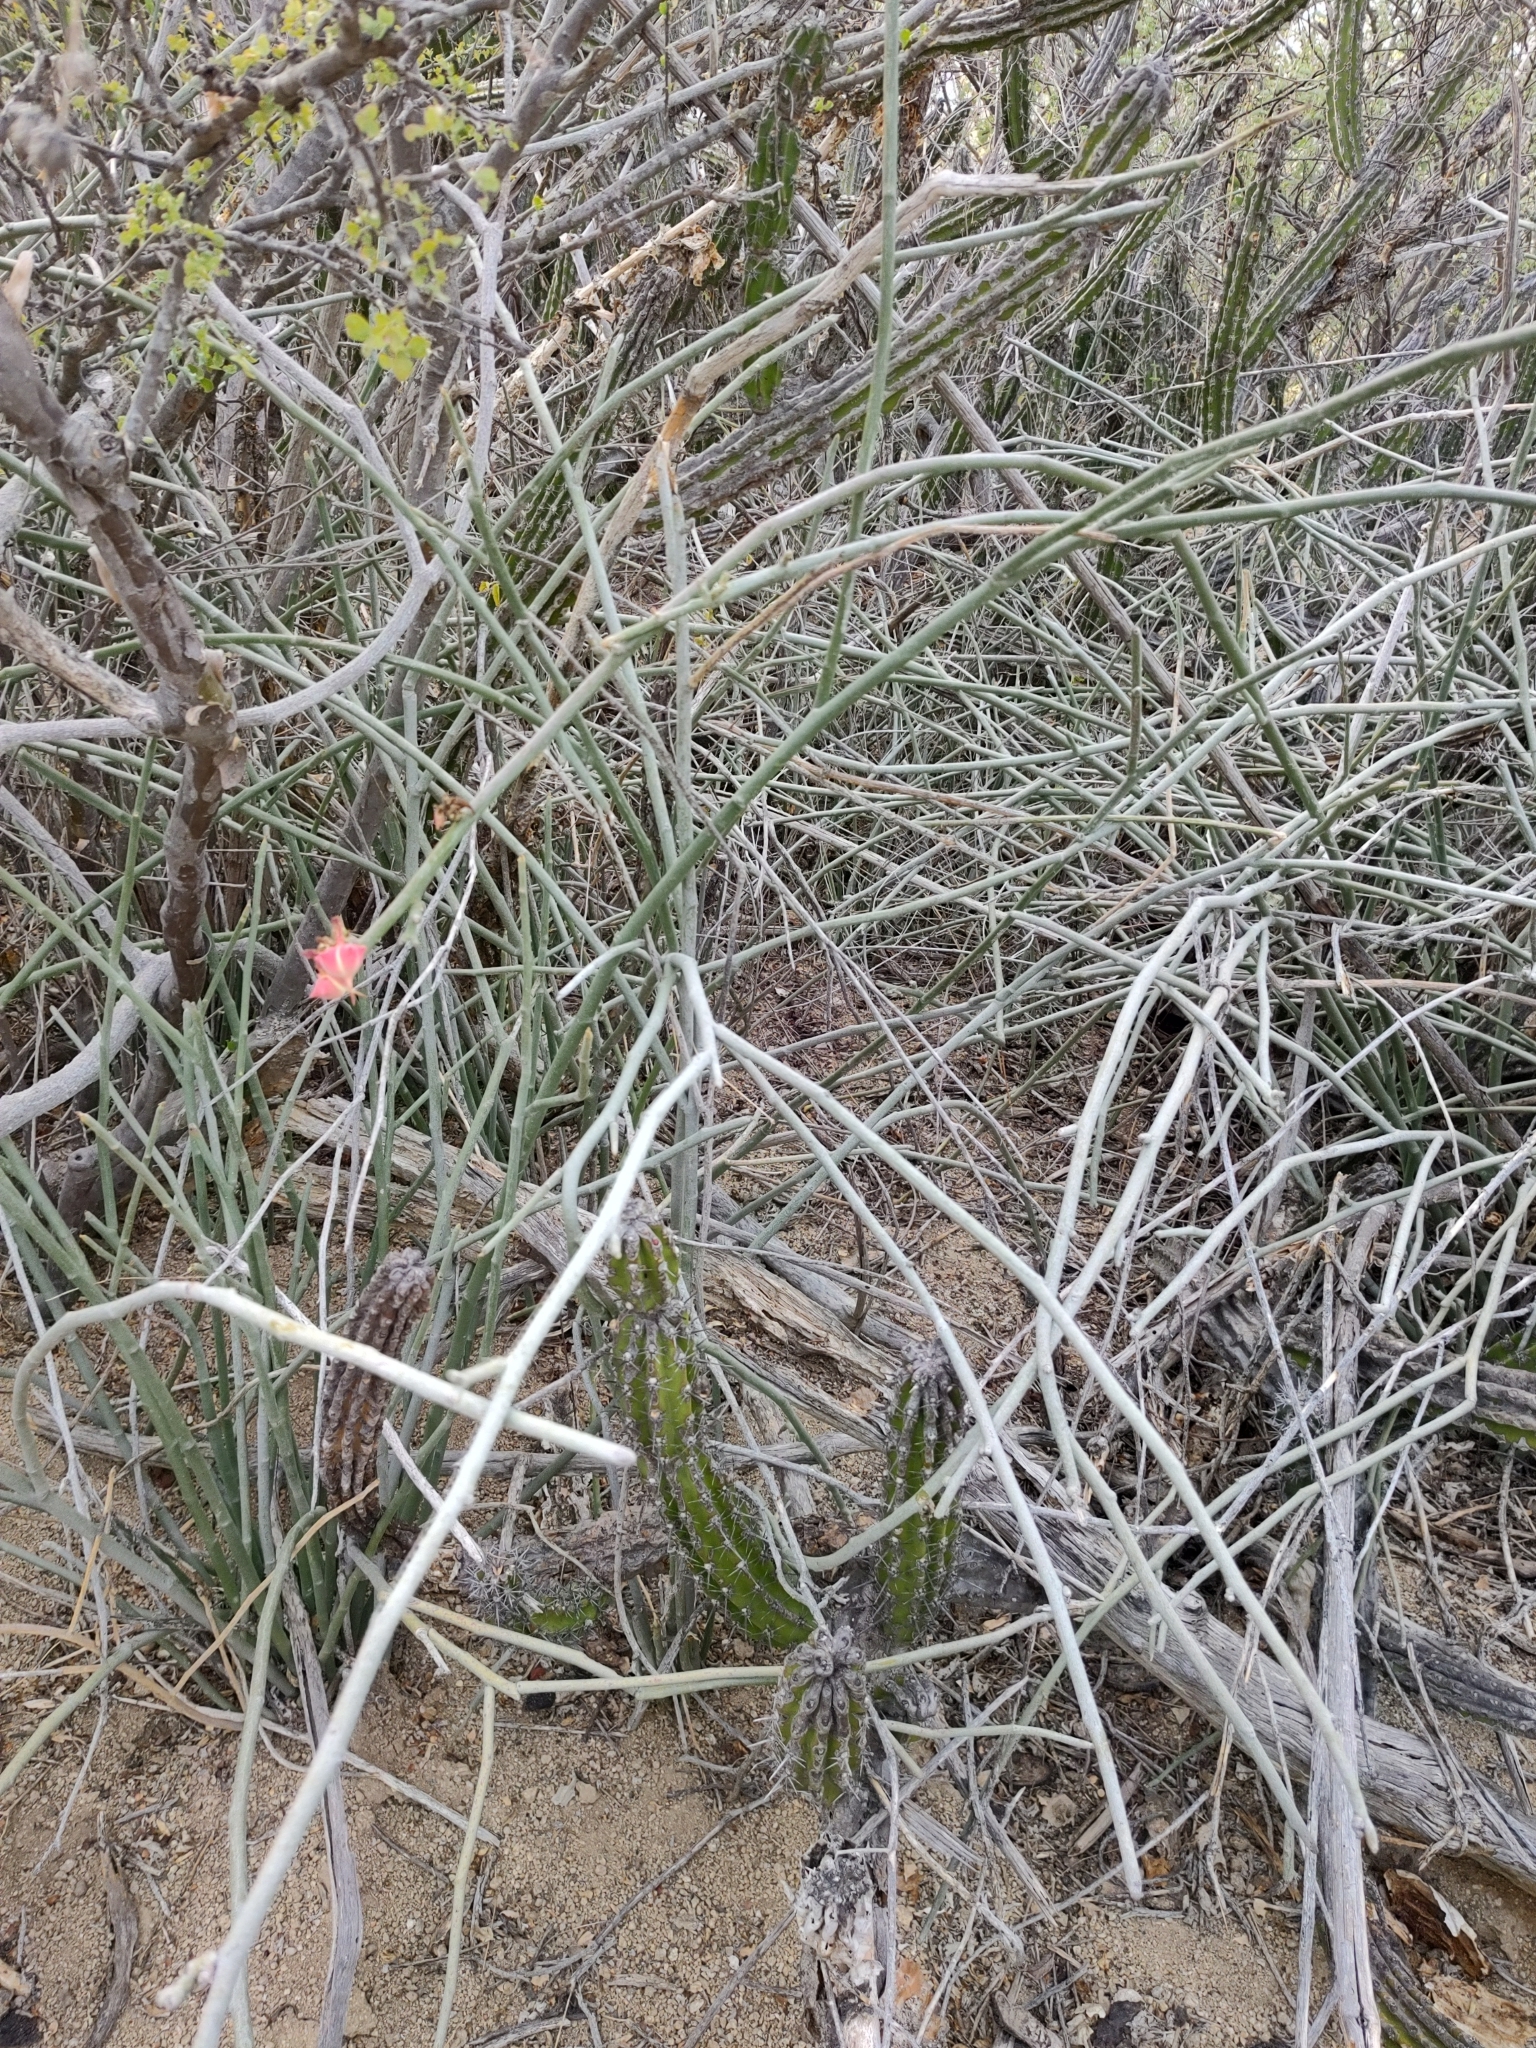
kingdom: Plantae
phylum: Tracheophyta
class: Magnoliopsida
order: Malpighiales
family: Euphorbiaceae
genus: Euphorbia
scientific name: Euphorbia lomelii
